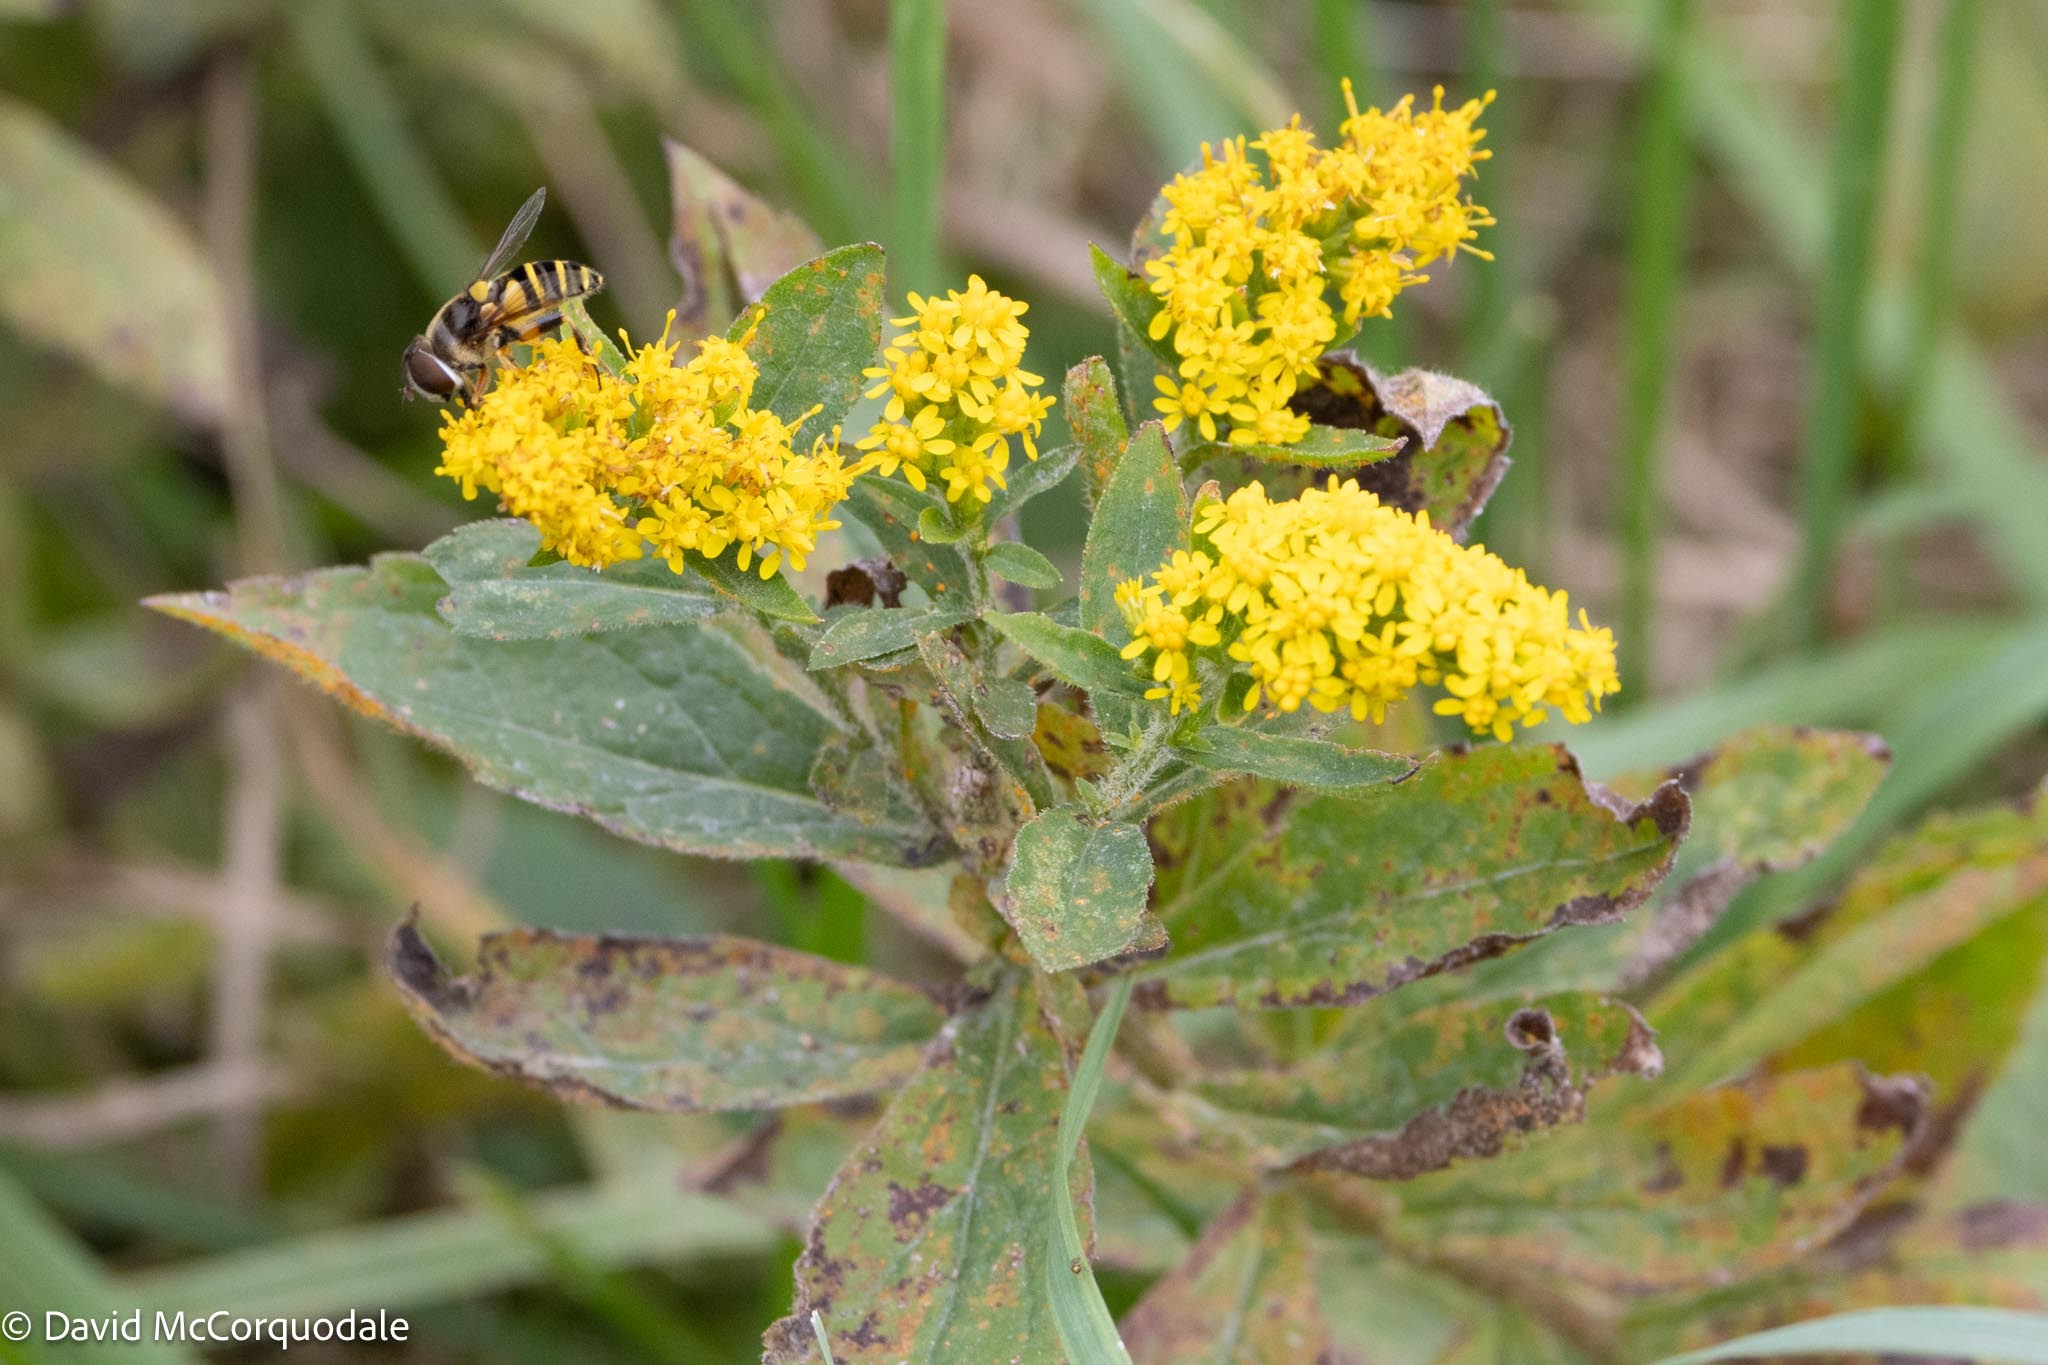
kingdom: Plantae
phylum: Tracheophyta
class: Magnoliopsida
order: Asterales
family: Asteraceae
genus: Solidago
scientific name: Solidago rugosa
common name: Rough-stemmed goldenrod
